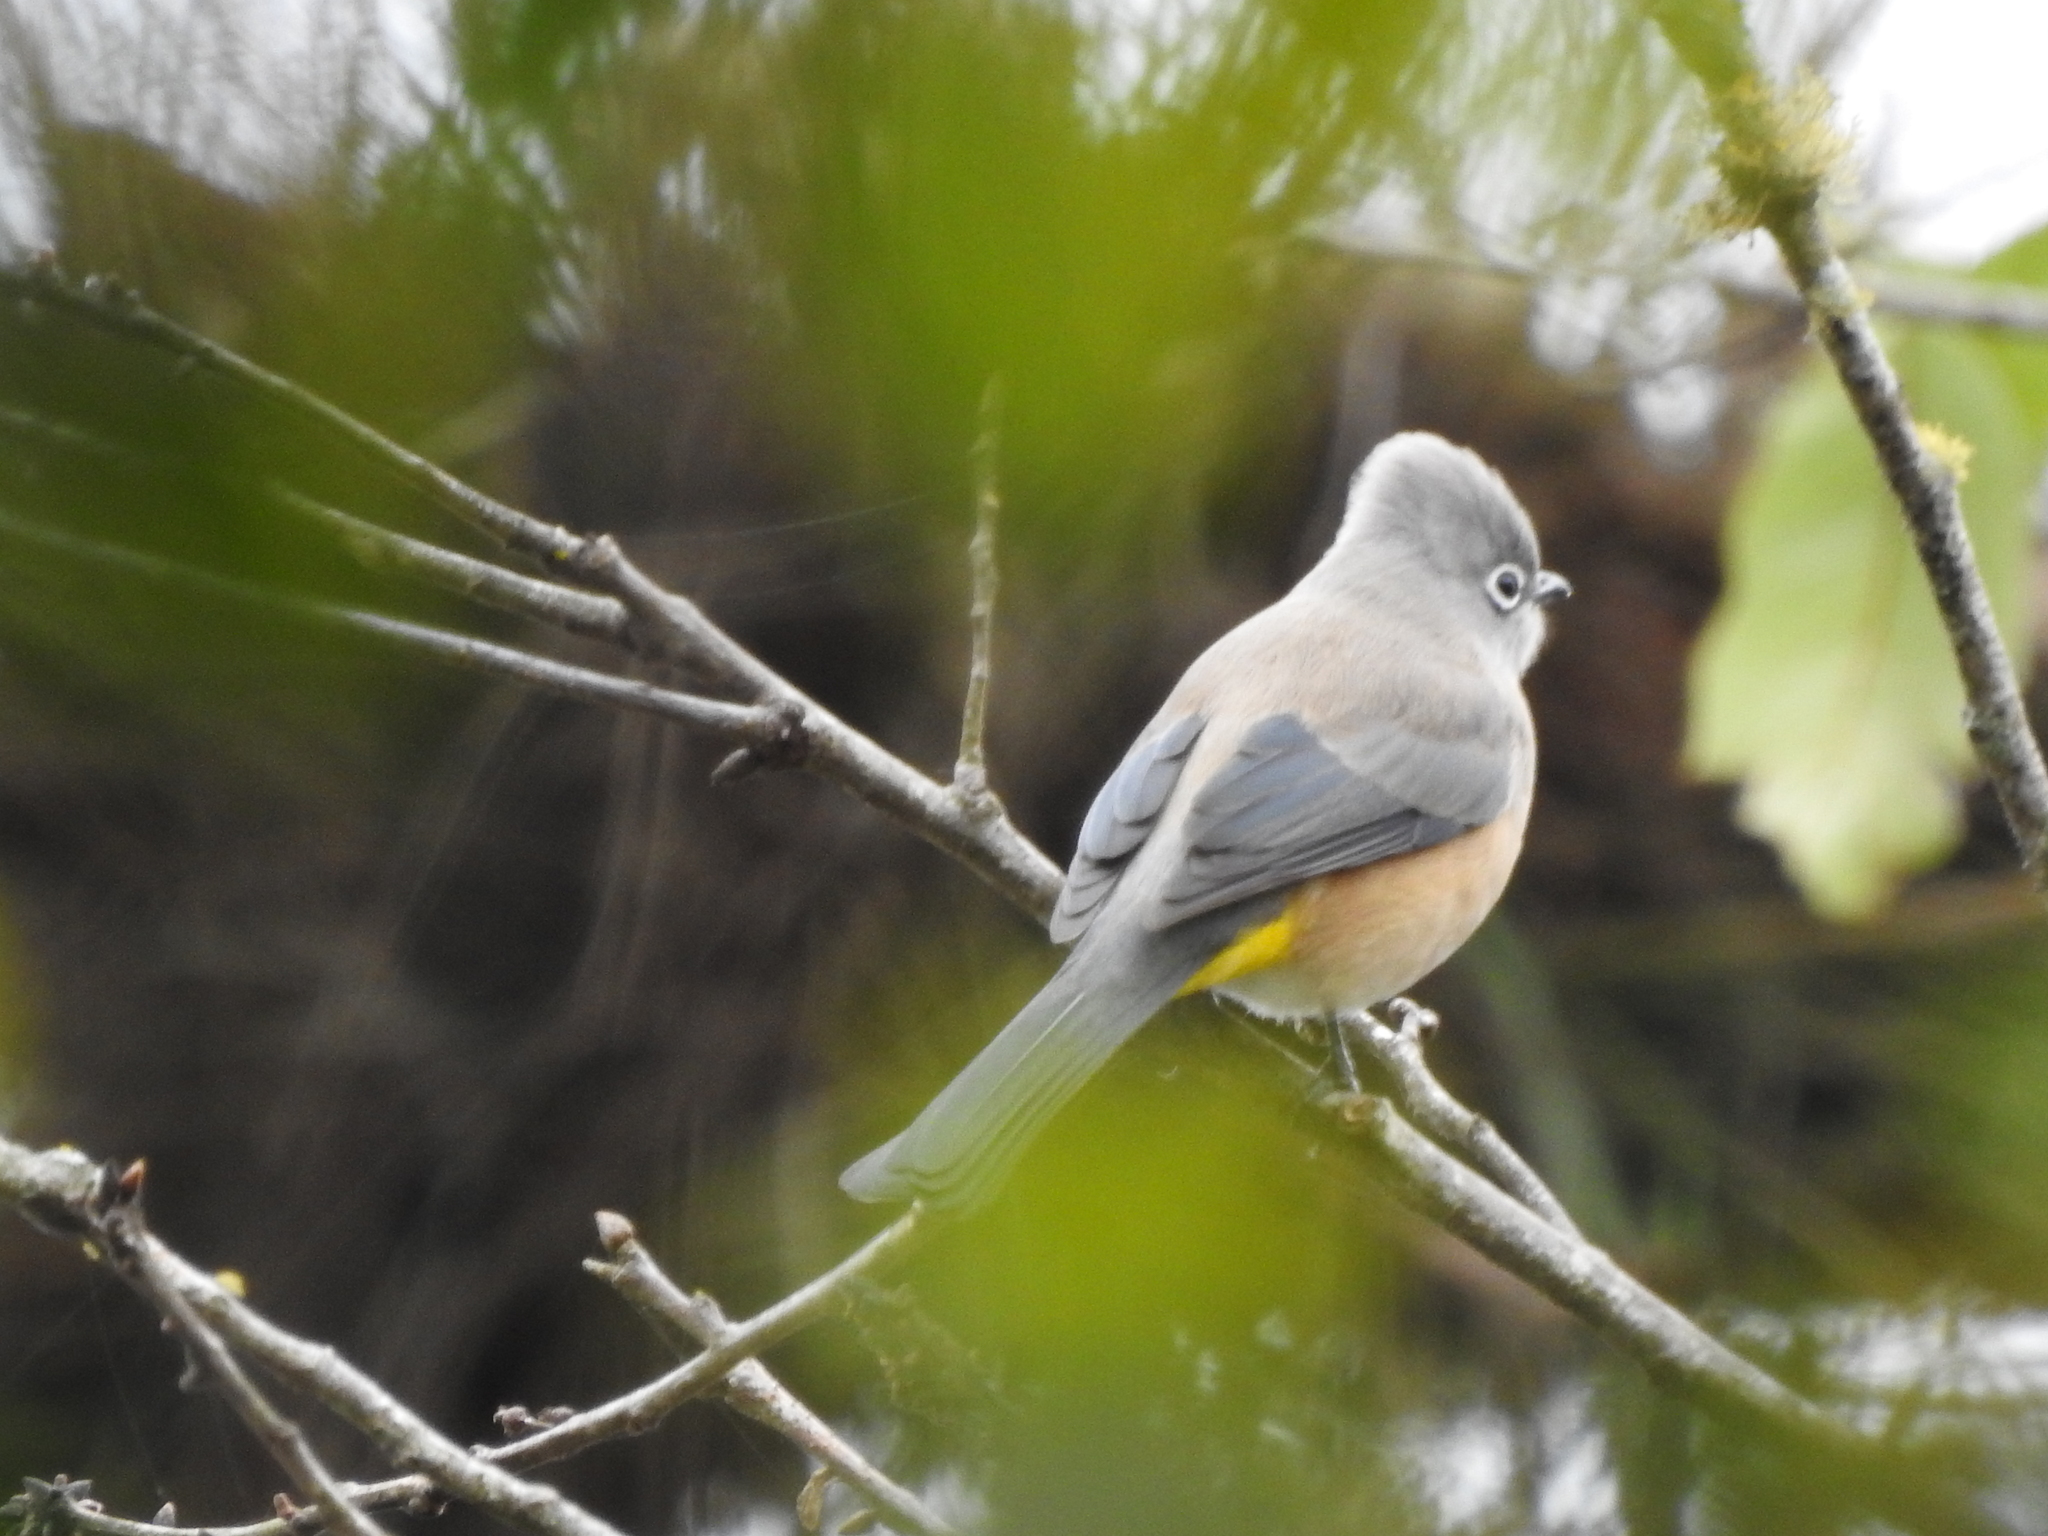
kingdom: Animalia
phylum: Chordata
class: Aves
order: Passeriformes
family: Ptilogonatidae
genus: Ptilogonys
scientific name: Ptilogonys cinereus
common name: Gray silky-flycatcher
